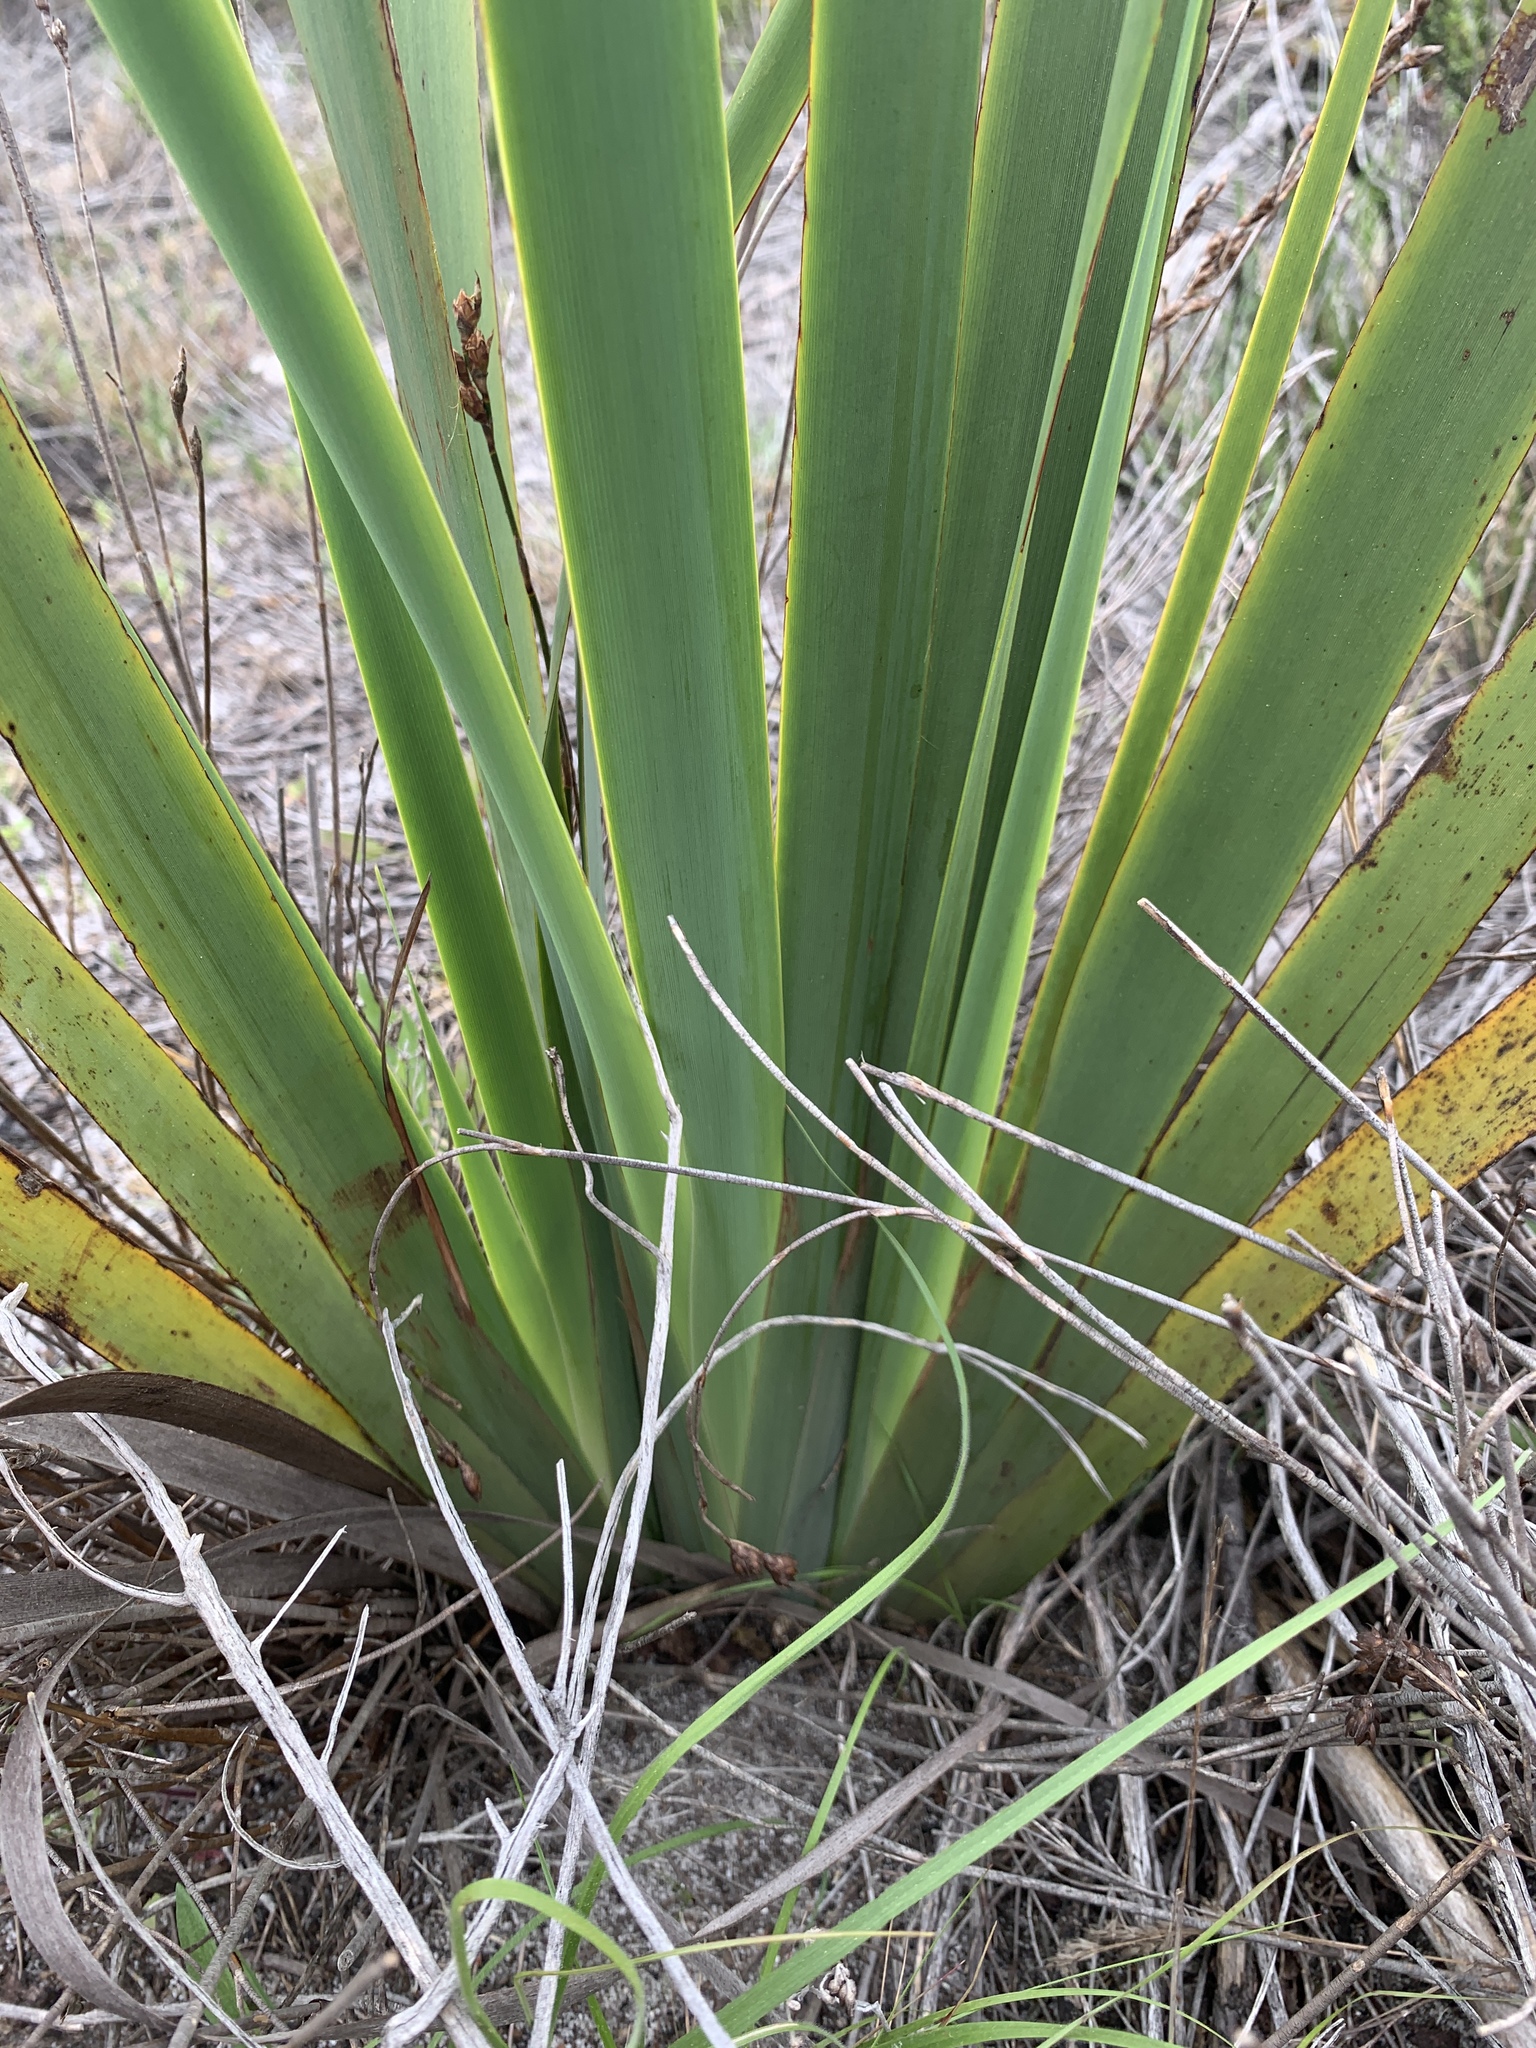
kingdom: Plantae
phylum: Tracheophyta
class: Liliopsida
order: Asparagales
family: Iridaceae
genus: Aristea
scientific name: Aristea capitata
